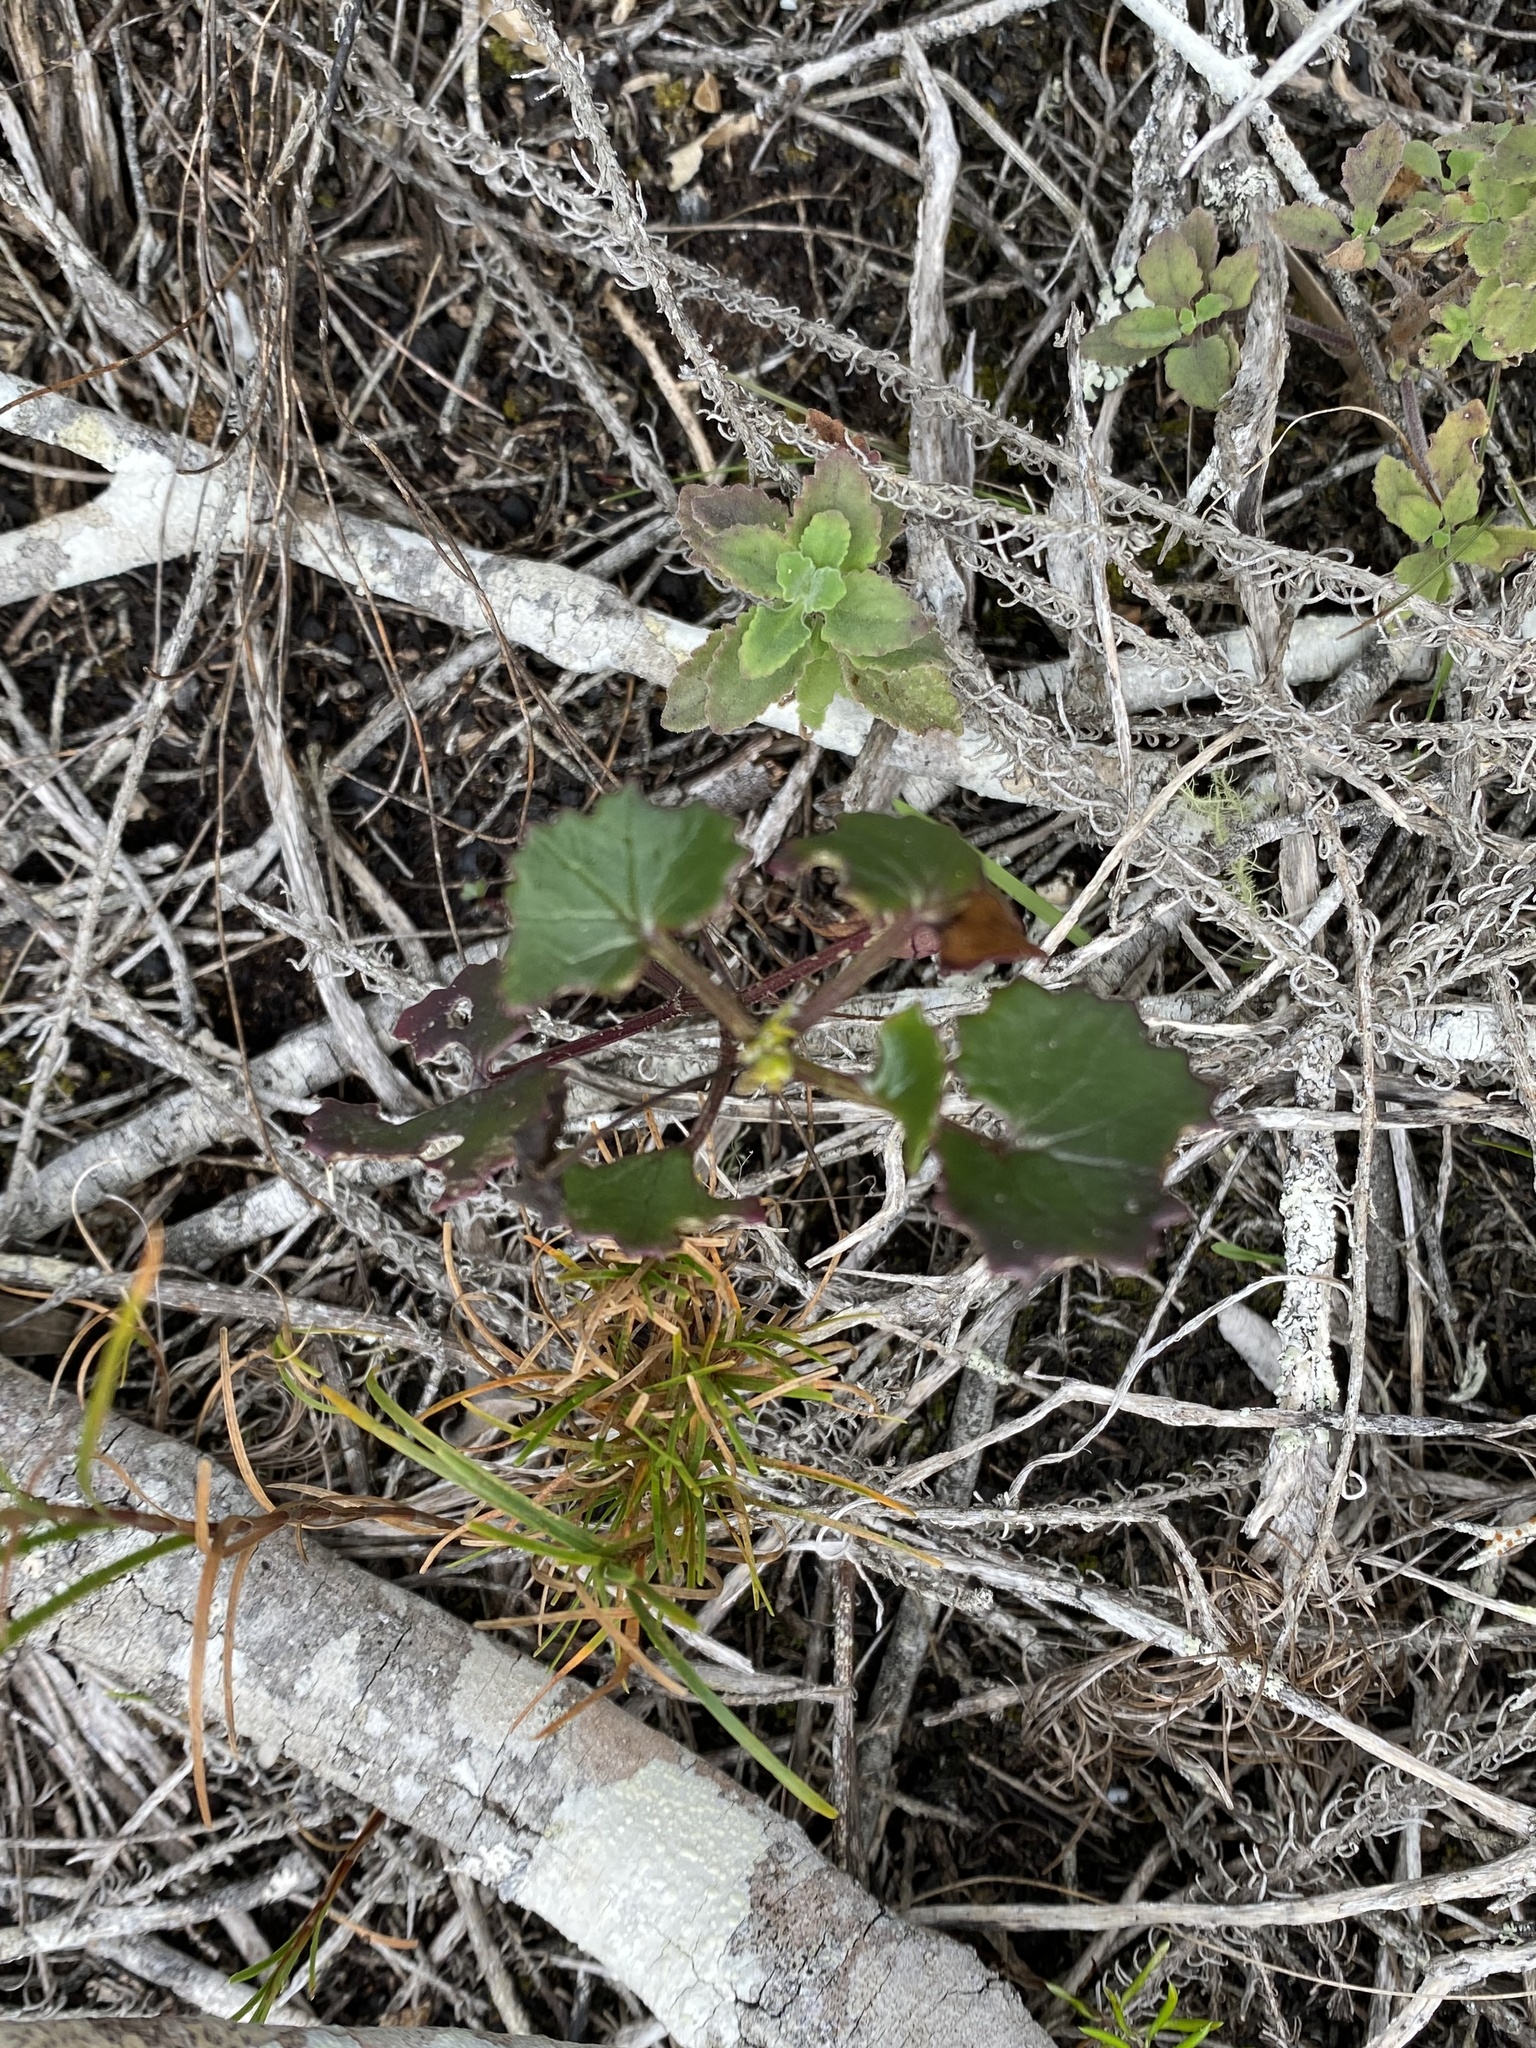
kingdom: Plantae
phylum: Tracheophyta
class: Magnoliopsida
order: Asterales
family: Asteraceae
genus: Cineraria
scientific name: Cineraria geifolia
